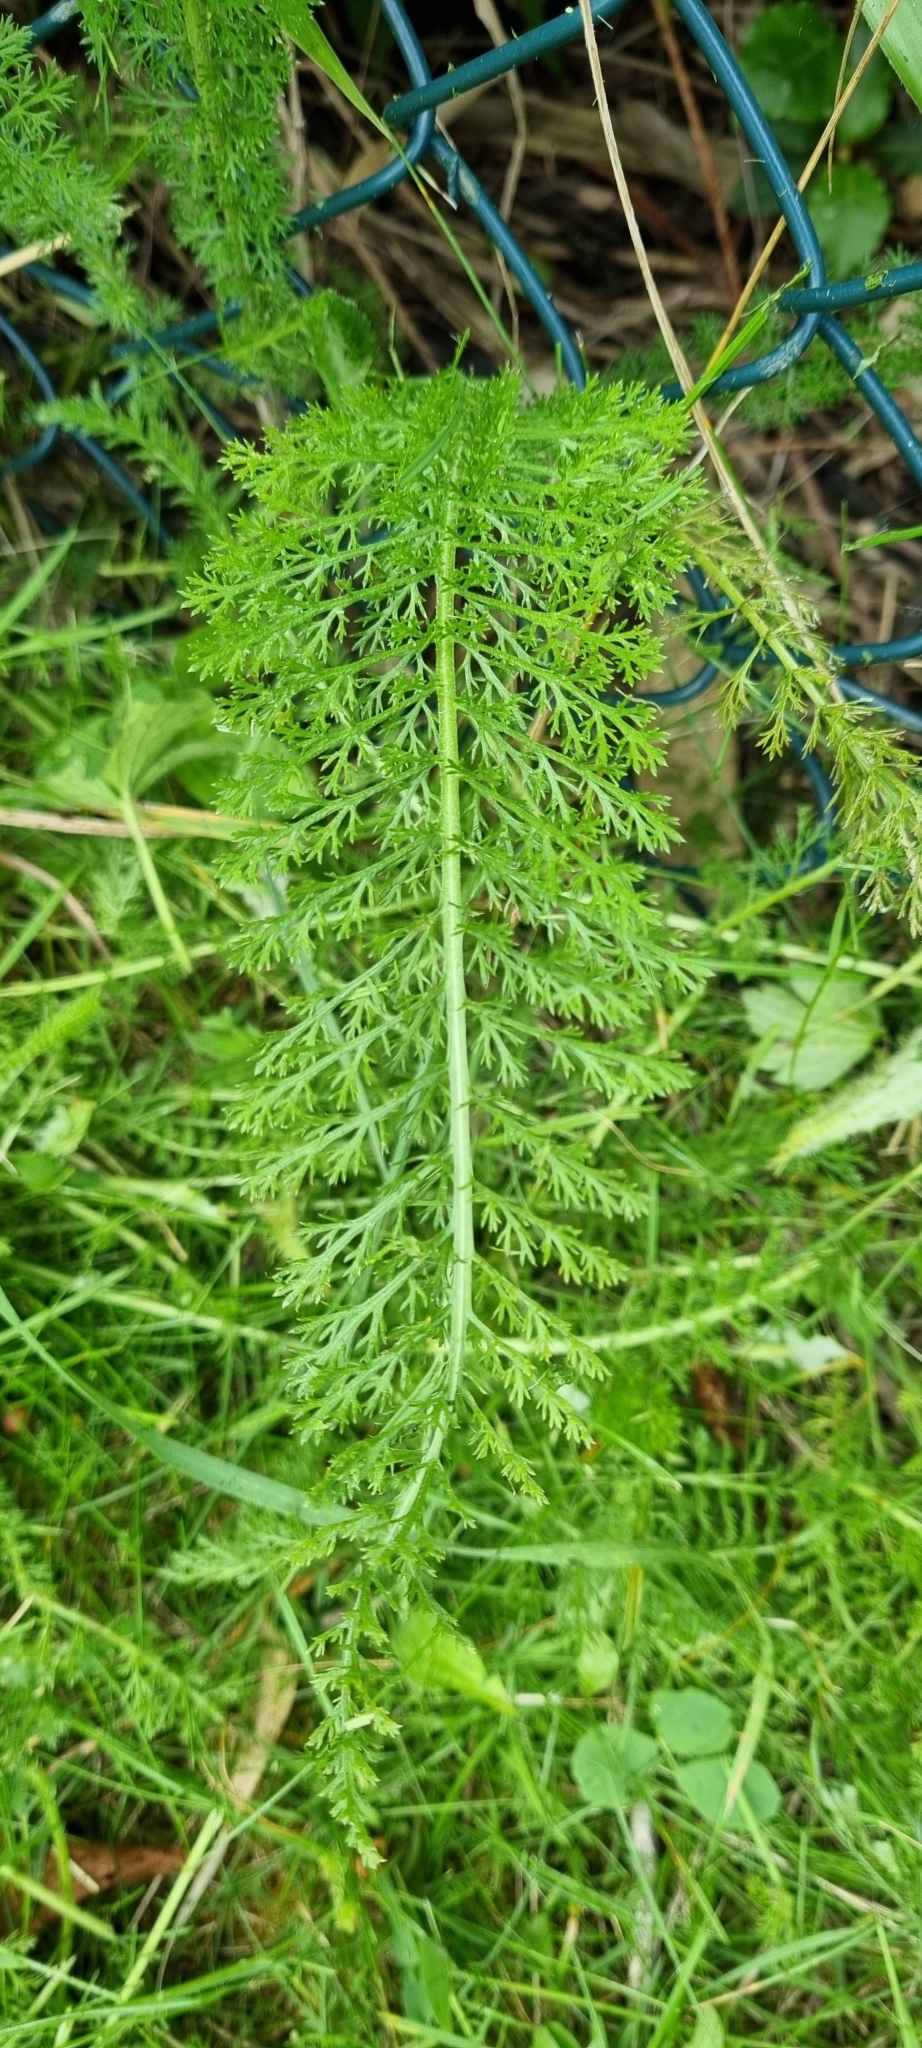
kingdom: Plantae
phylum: Tracheophyta
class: Magnoliopsida
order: Asterales
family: Asteraceae
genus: Achillea
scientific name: Achillea millefolium
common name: Yarrow
